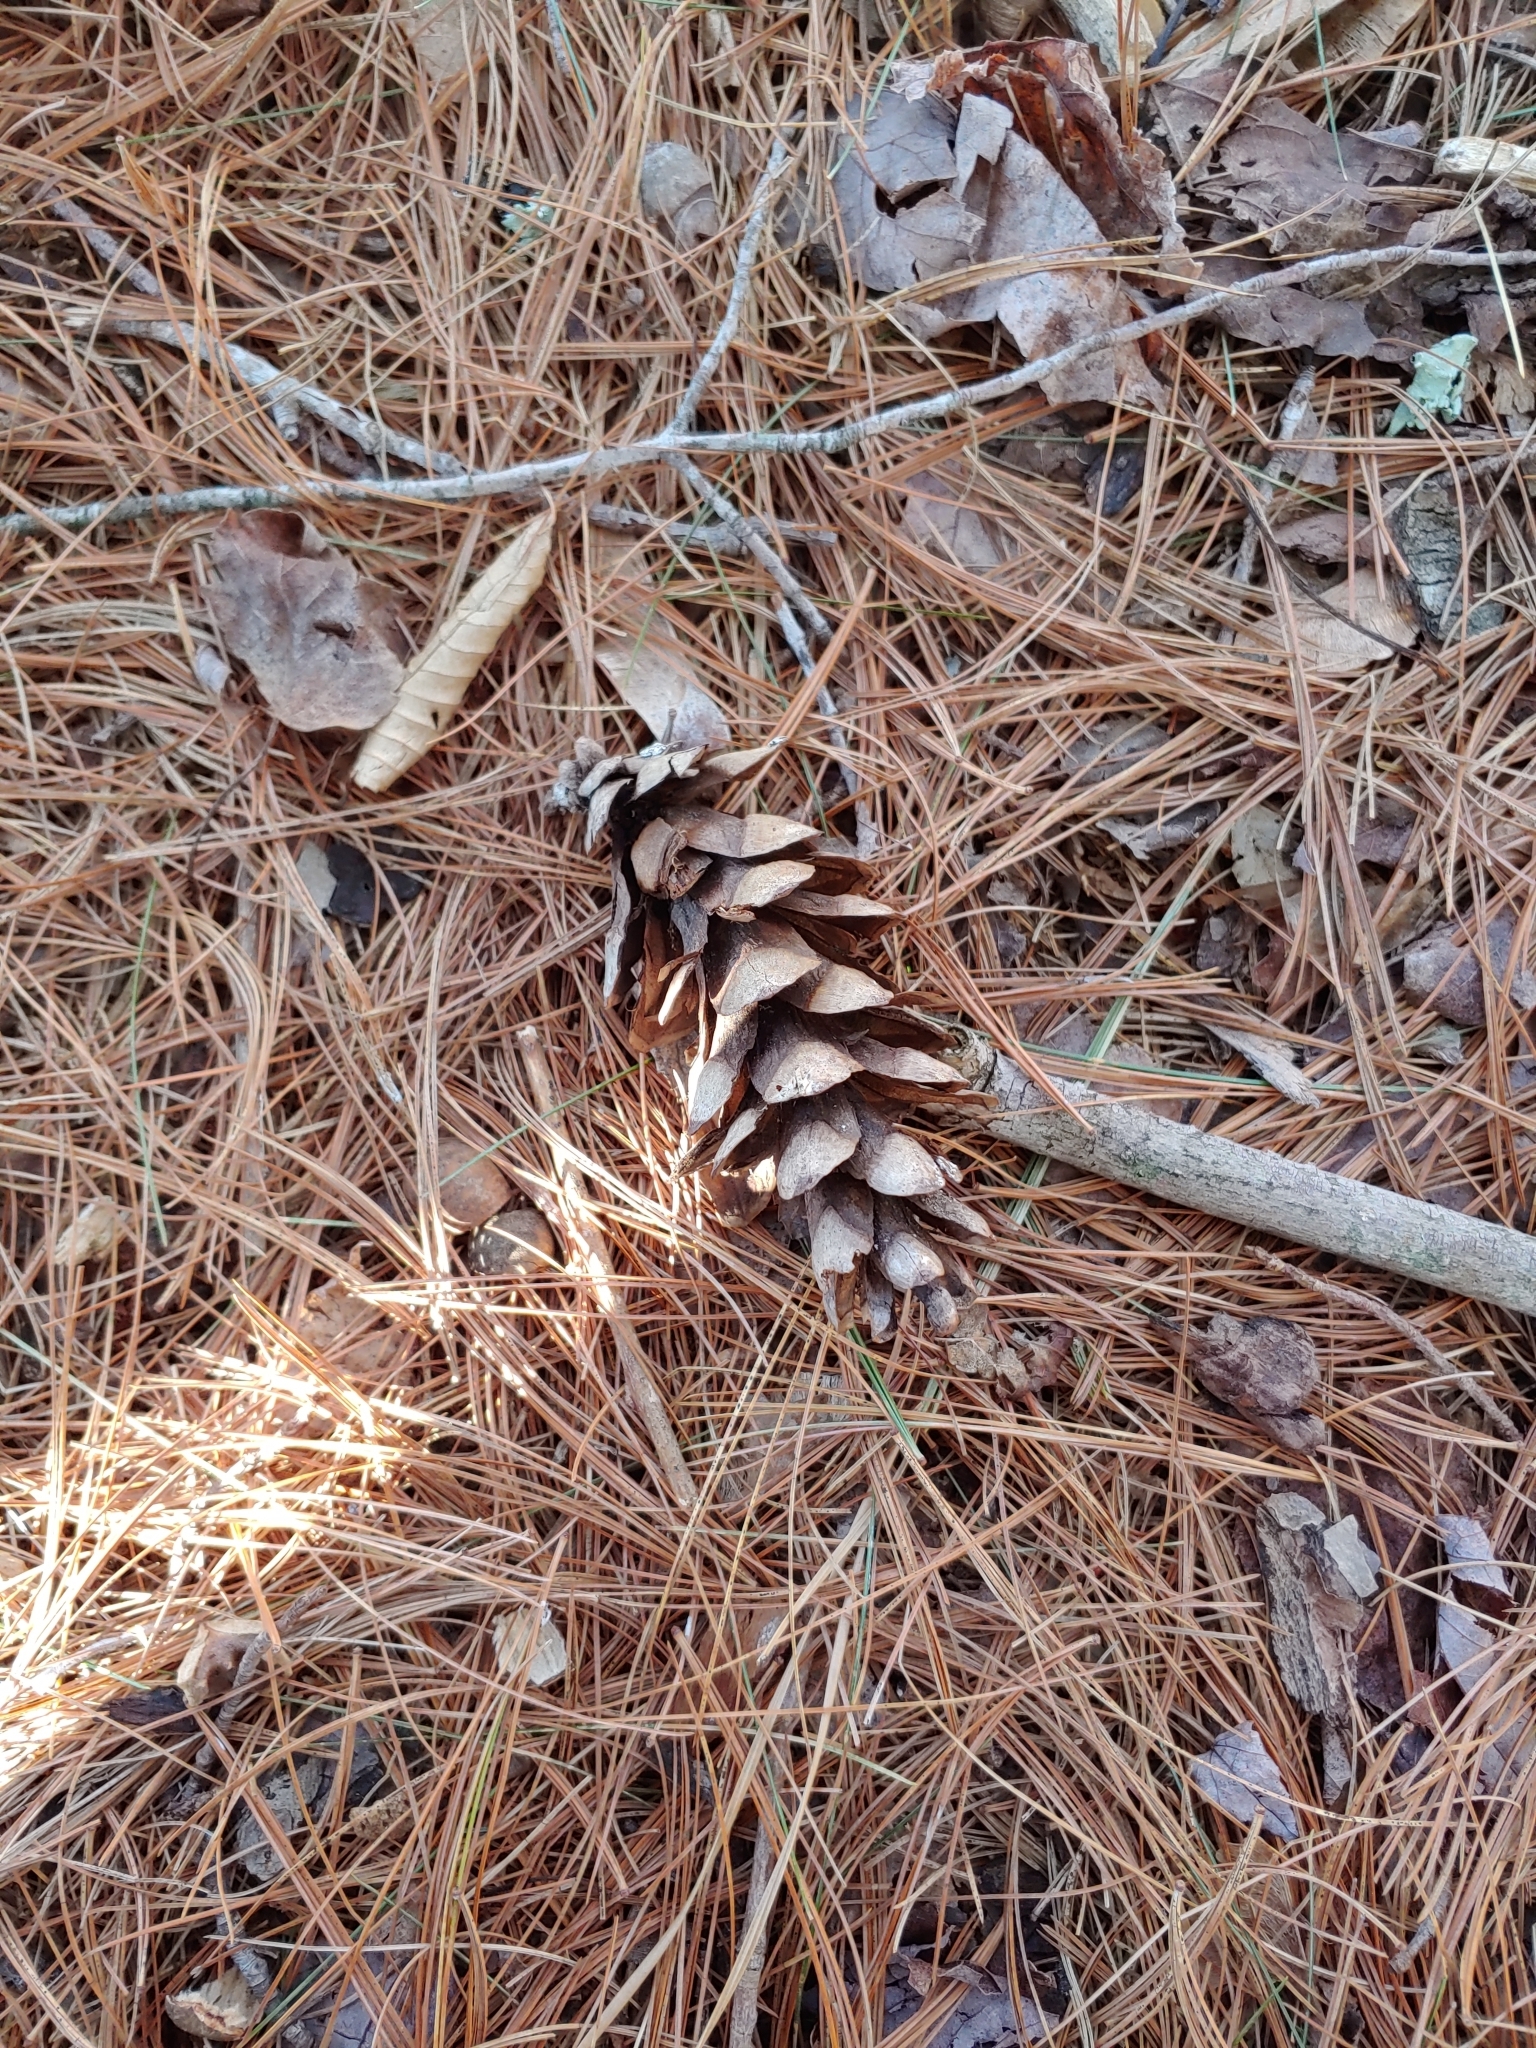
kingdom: Plantae
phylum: Tracheophyta
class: Pinopsida
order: Pinales
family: Pinaceae
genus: Pinus
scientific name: Pinus strobus
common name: Weymouth pine
